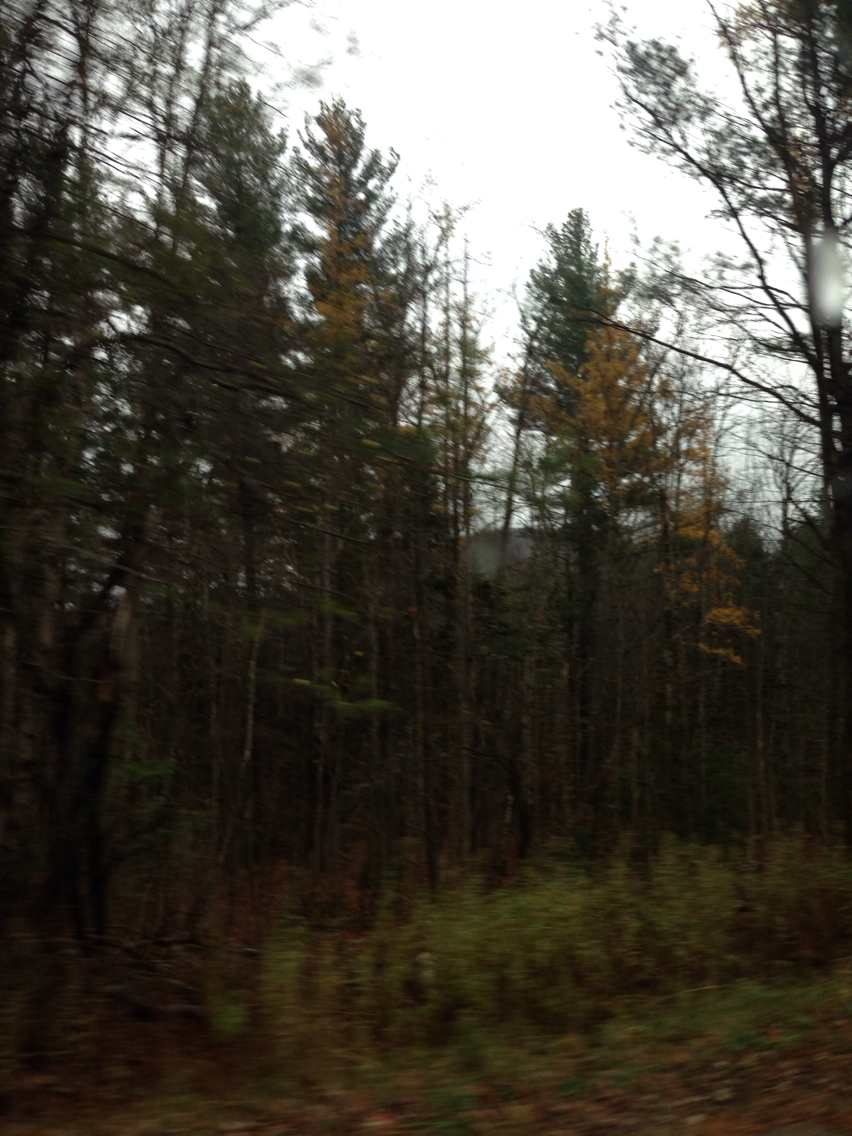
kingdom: Plantae
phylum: Tracheophyta
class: Pinopsida
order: Pinales
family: Pinaceae
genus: Larix
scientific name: Larix laricina
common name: American larch
